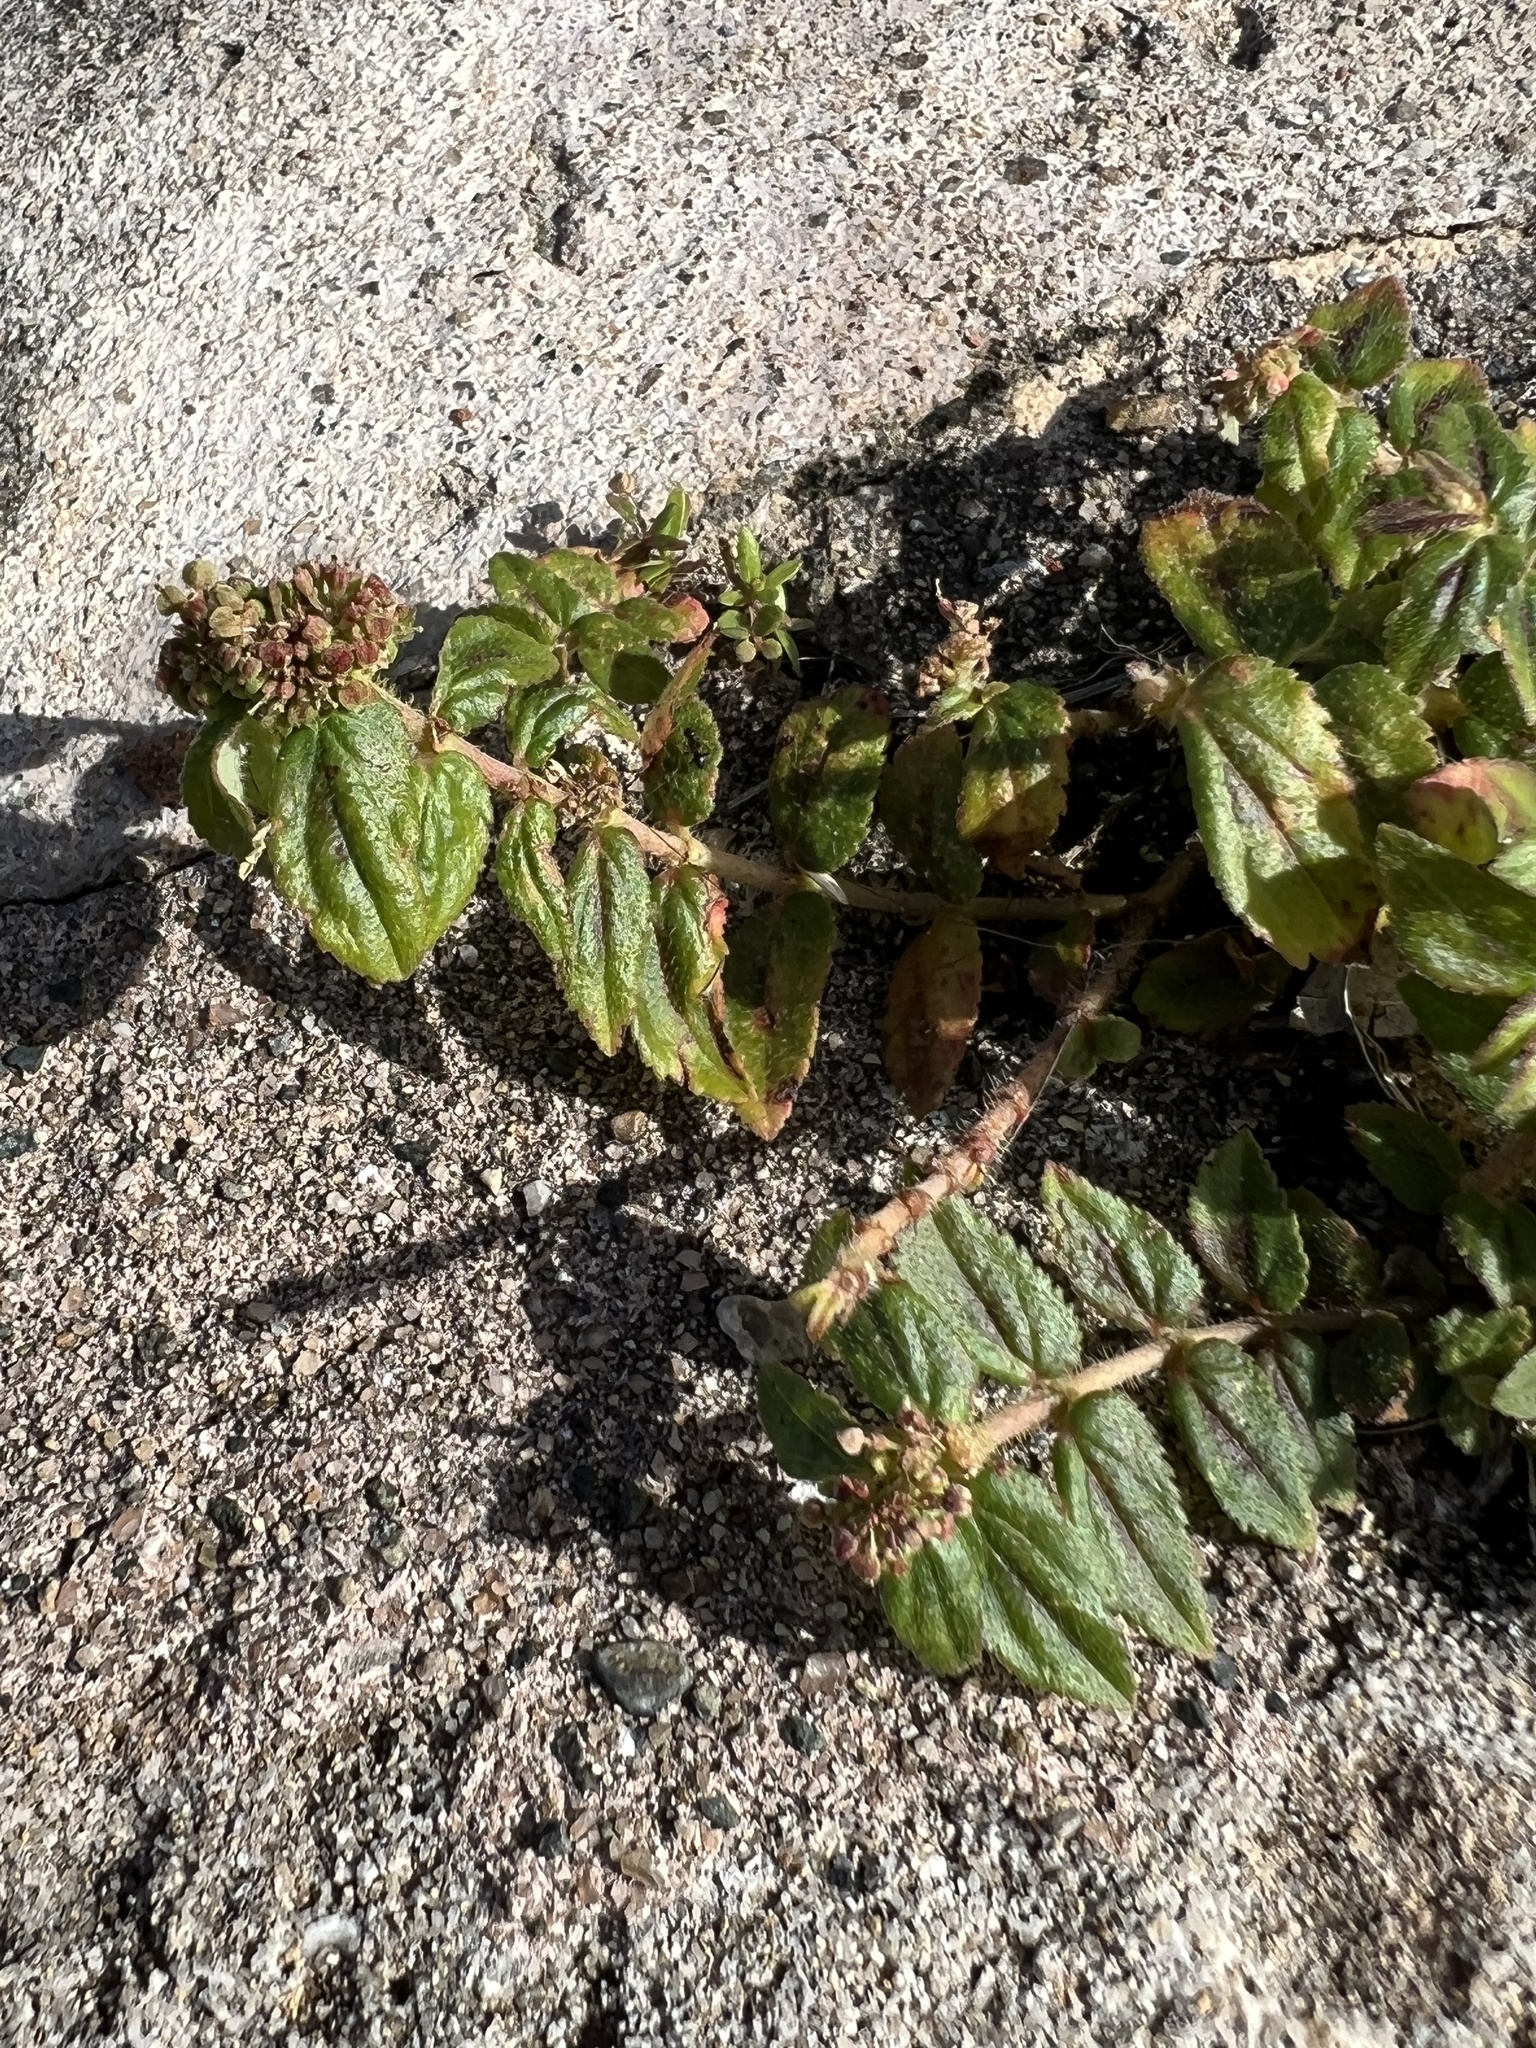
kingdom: Plantae
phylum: Tracheophyta
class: Magnoliopsida
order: Malpighiales
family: Euphorbiaceae
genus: Euphorbia
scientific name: Euphorbia hirta
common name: Pillpod sandmat
